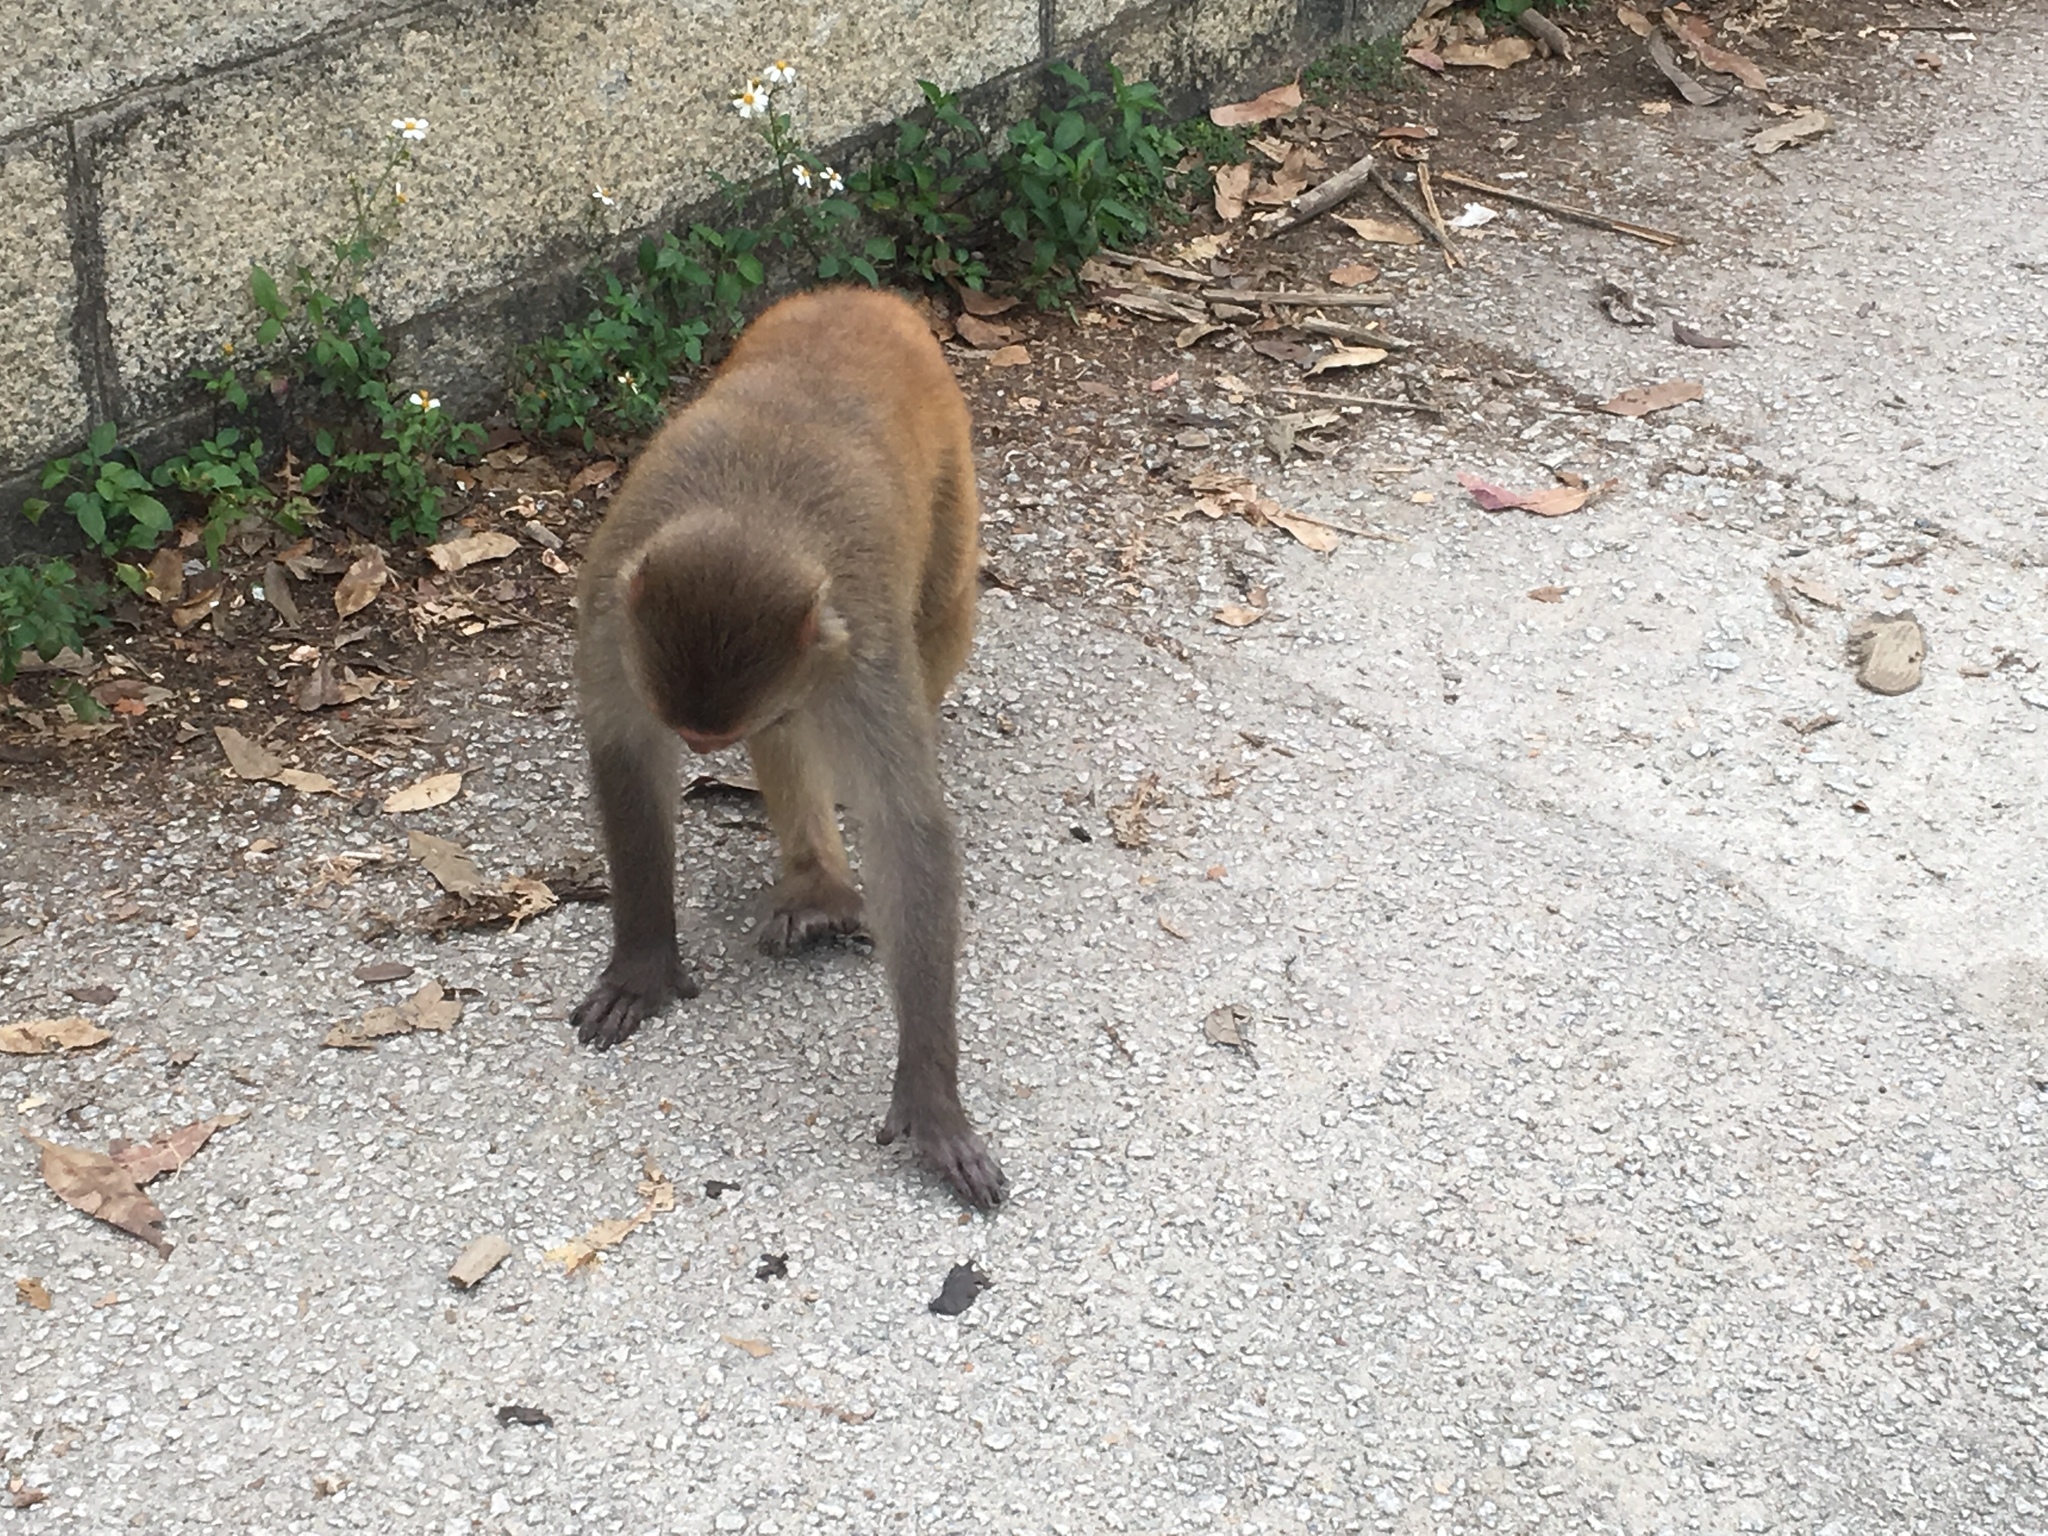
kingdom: Animalia
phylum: Chordata
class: Mammalia
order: Primates
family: Cercopithecidae
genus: Macaca
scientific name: Macaca mulatta
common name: Rhesus monkey
